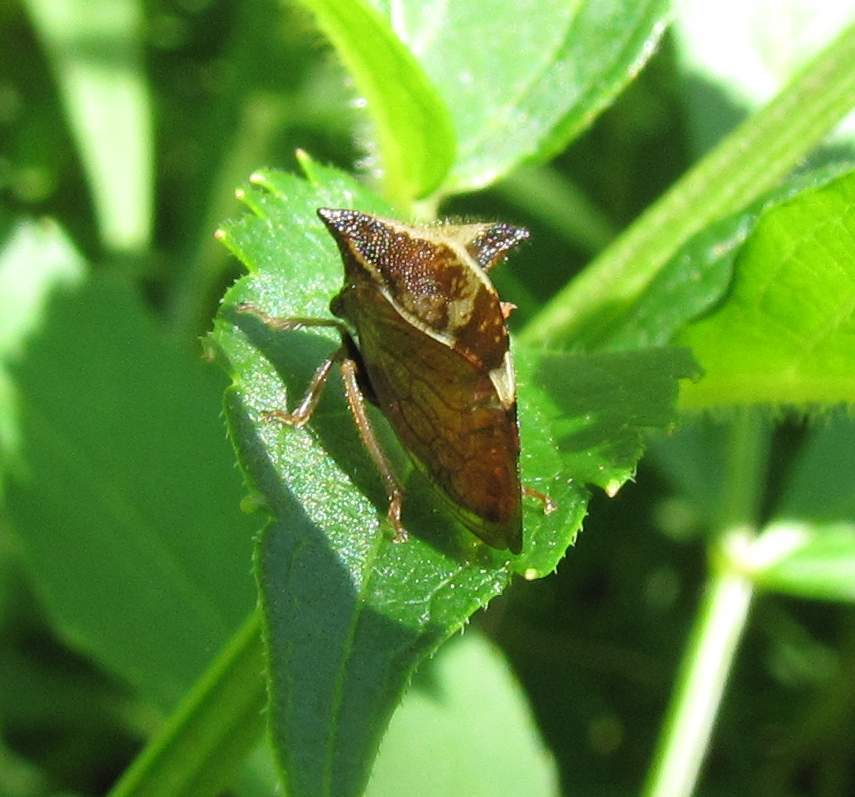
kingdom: Animalia
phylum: Arthropoda
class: Insecta
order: Hemiptera
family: Membracidae
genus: Stictocephala
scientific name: Stictocephala diceros
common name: Two-horned treehopper
